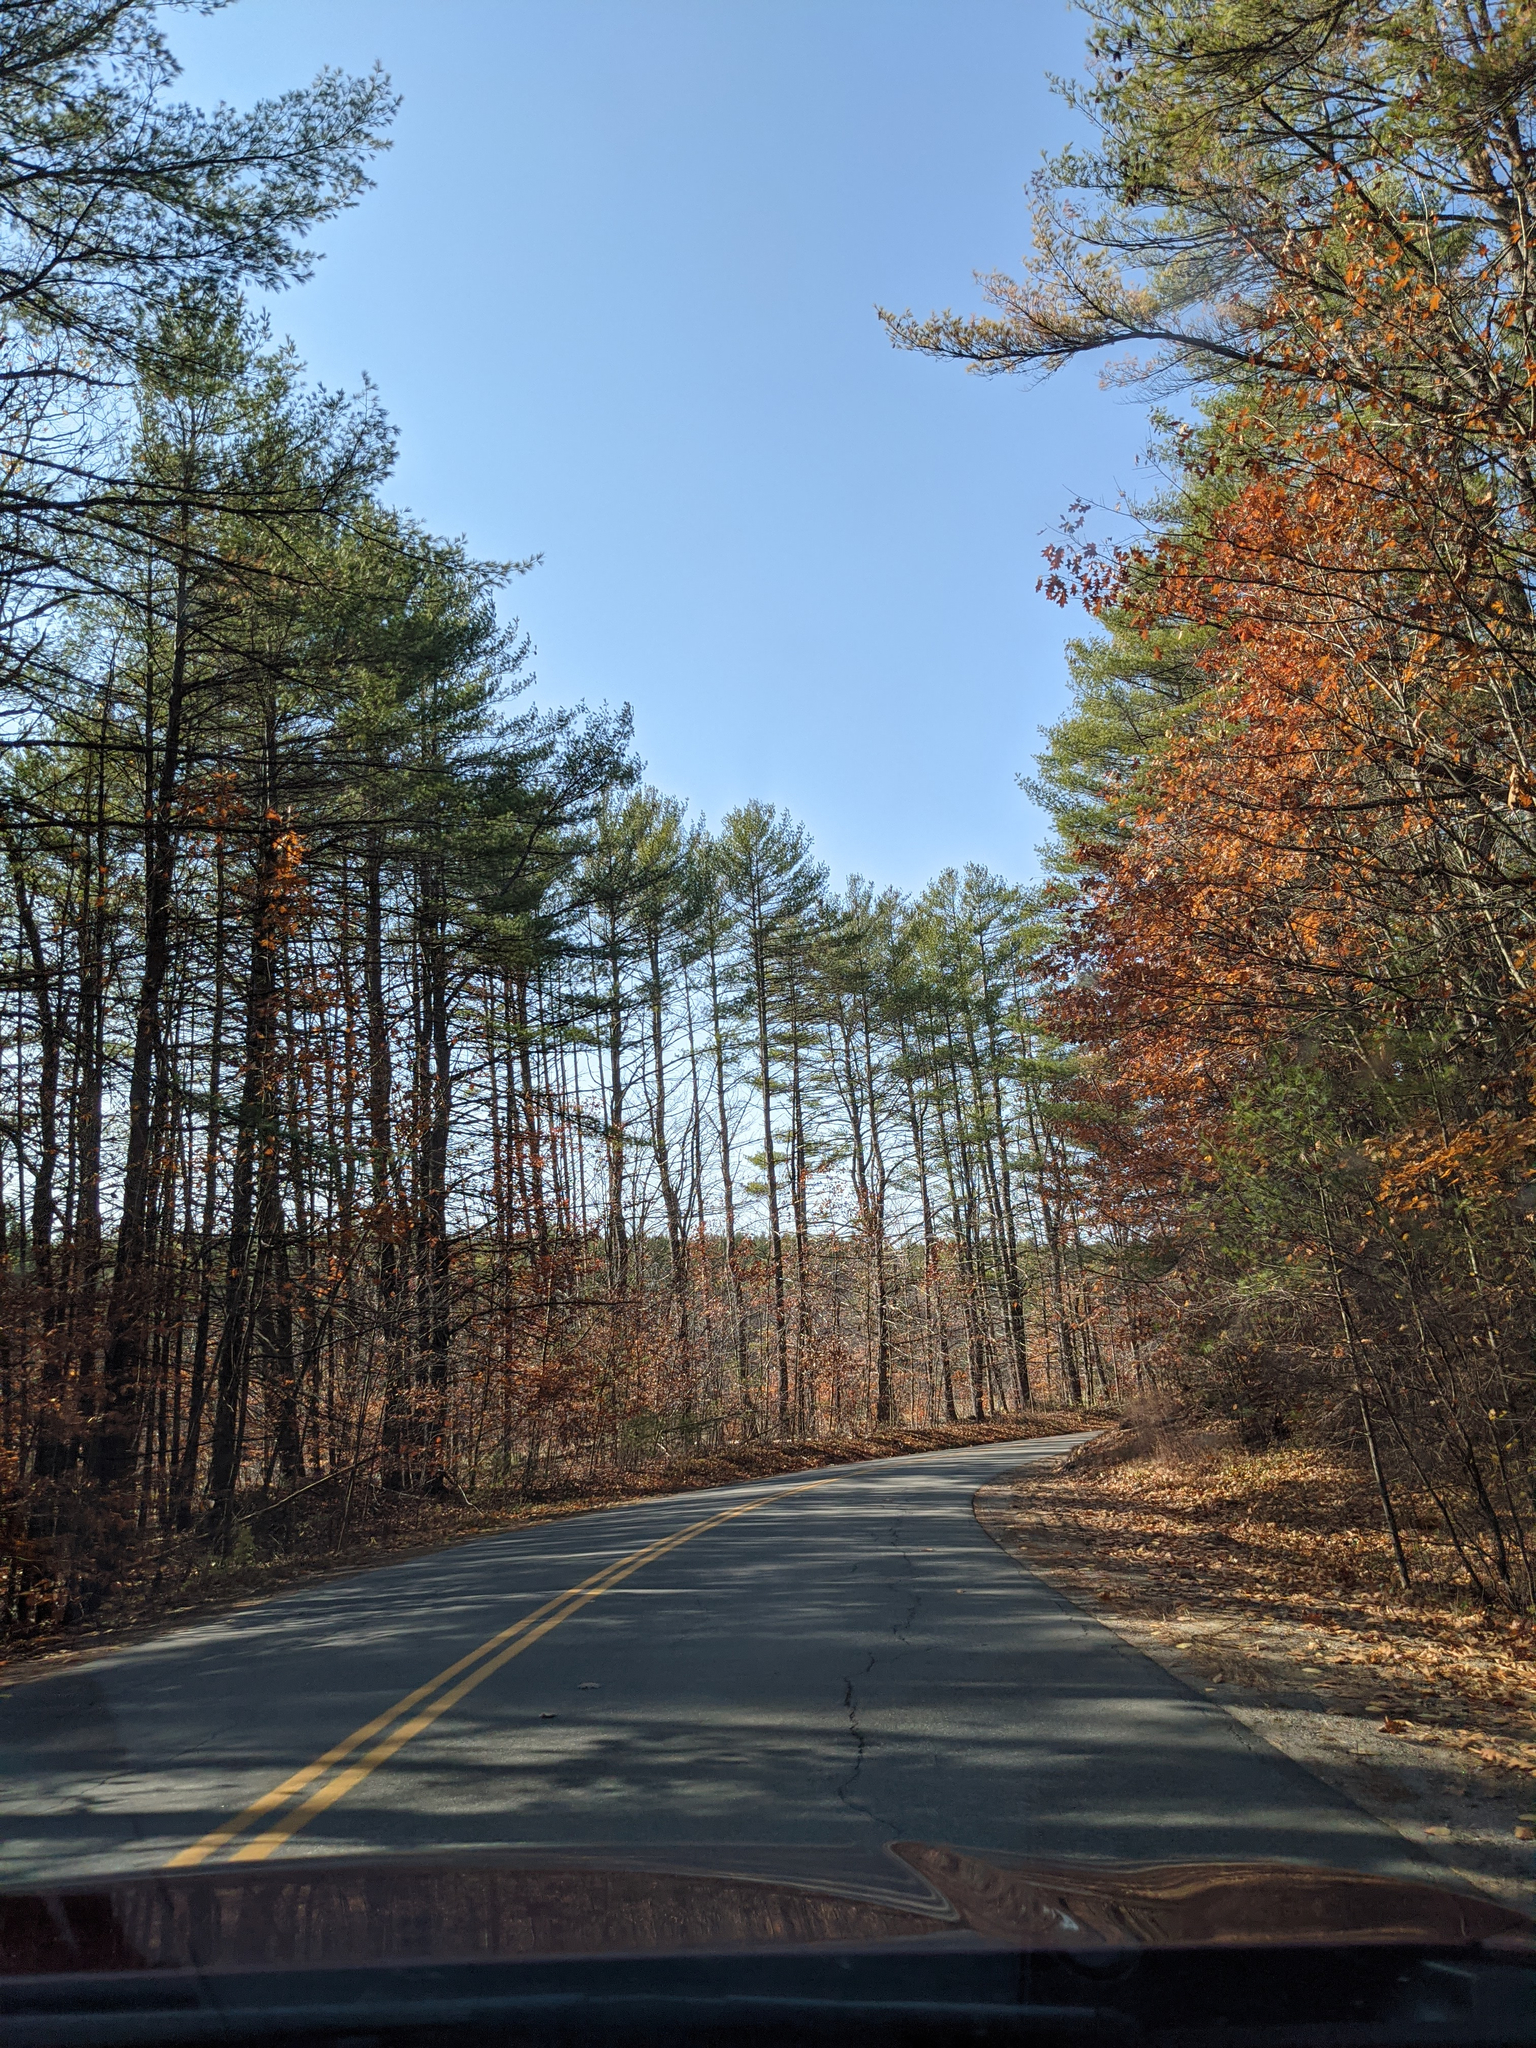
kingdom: Plantae
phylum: Tracheophyta
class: Pinopsida
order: Pinales
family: Pinaceae
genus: Pinus
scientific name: Pinus strobus
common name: Weymouth pine
